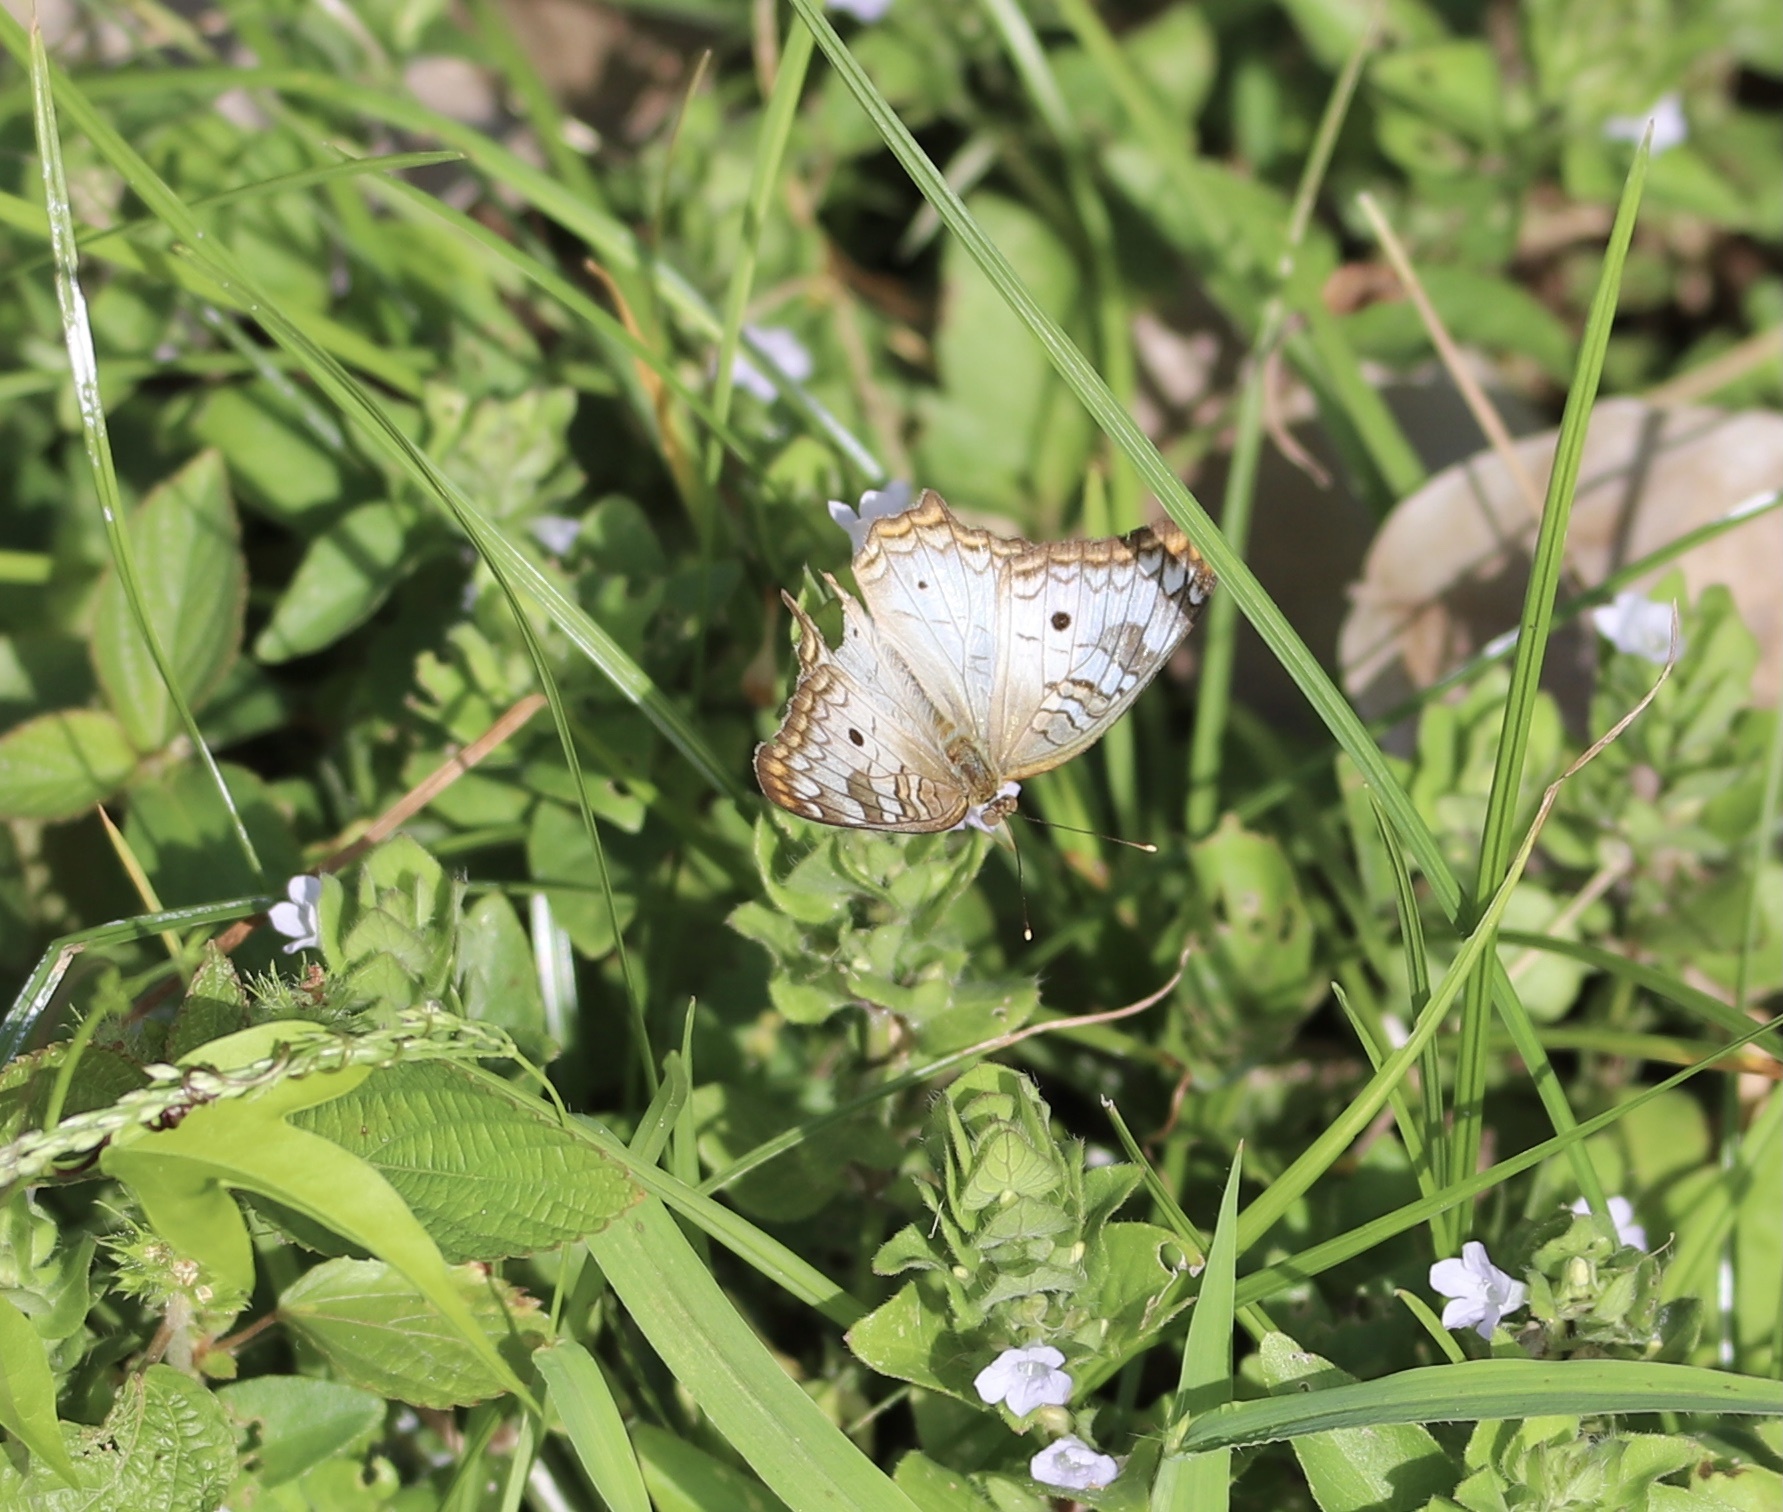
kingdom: Animalia
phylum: Arthropoda
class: Insecta
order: Lepidoptera
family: Nymphalidae
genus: Anartia
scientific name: Anartia jatrophae
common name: White peacock
